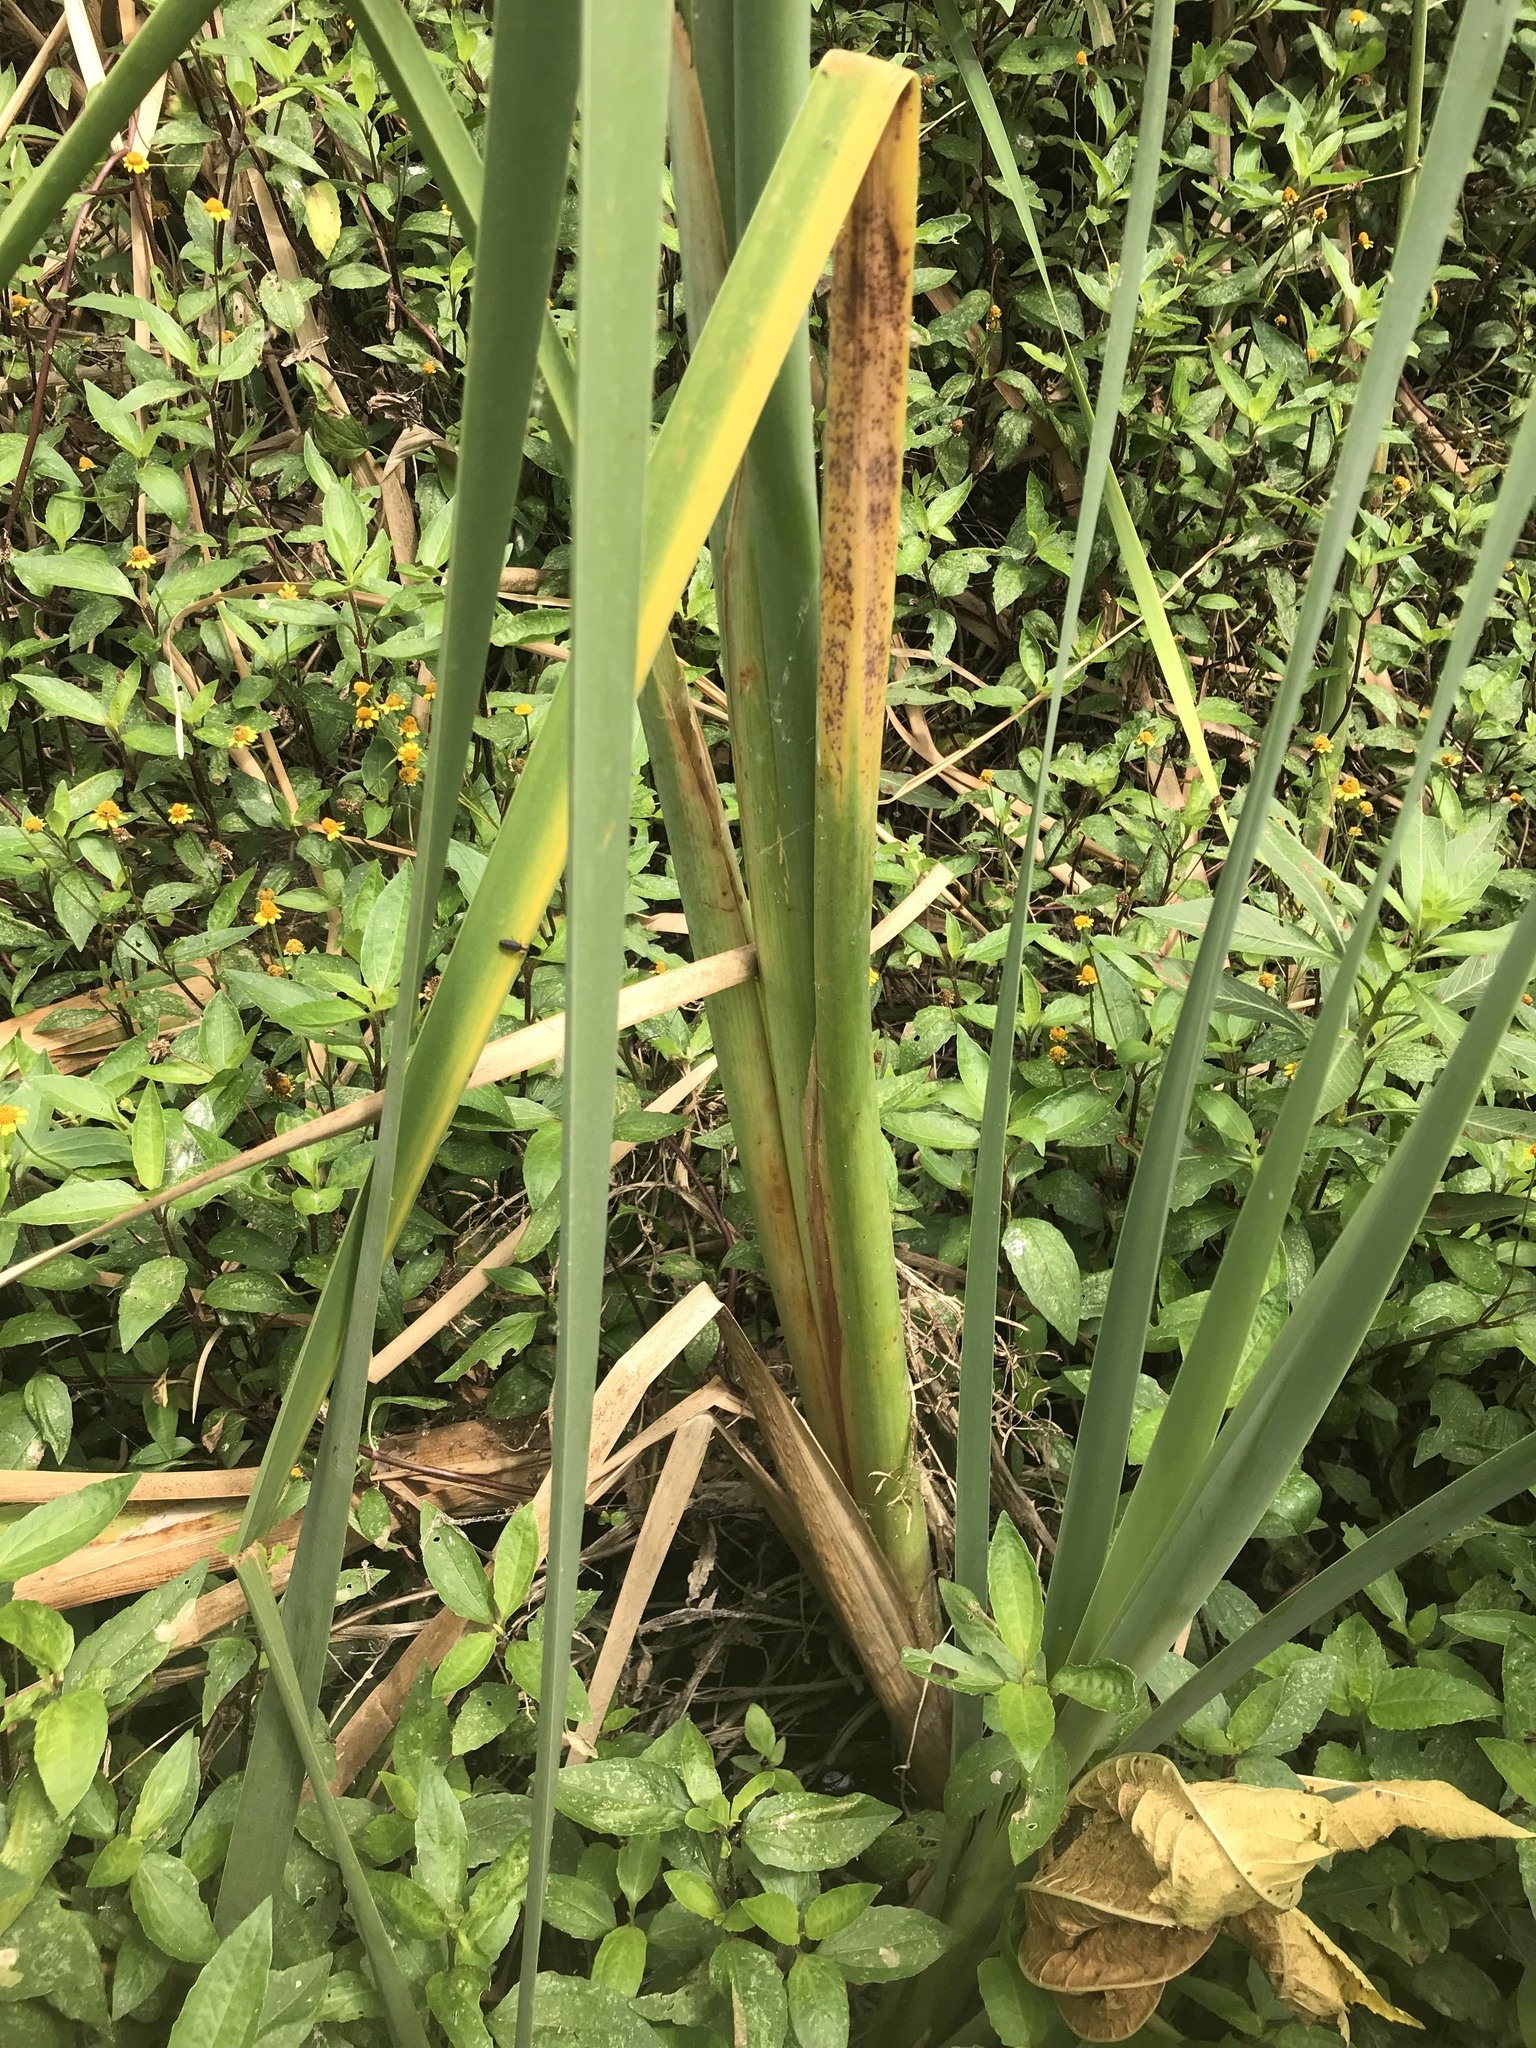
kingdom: Plantae
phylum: Tracheophyta
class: Liliopsida
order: Poales
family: Typhaceae
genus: Typha
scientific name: Typha domingensis
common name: Southern cattail
